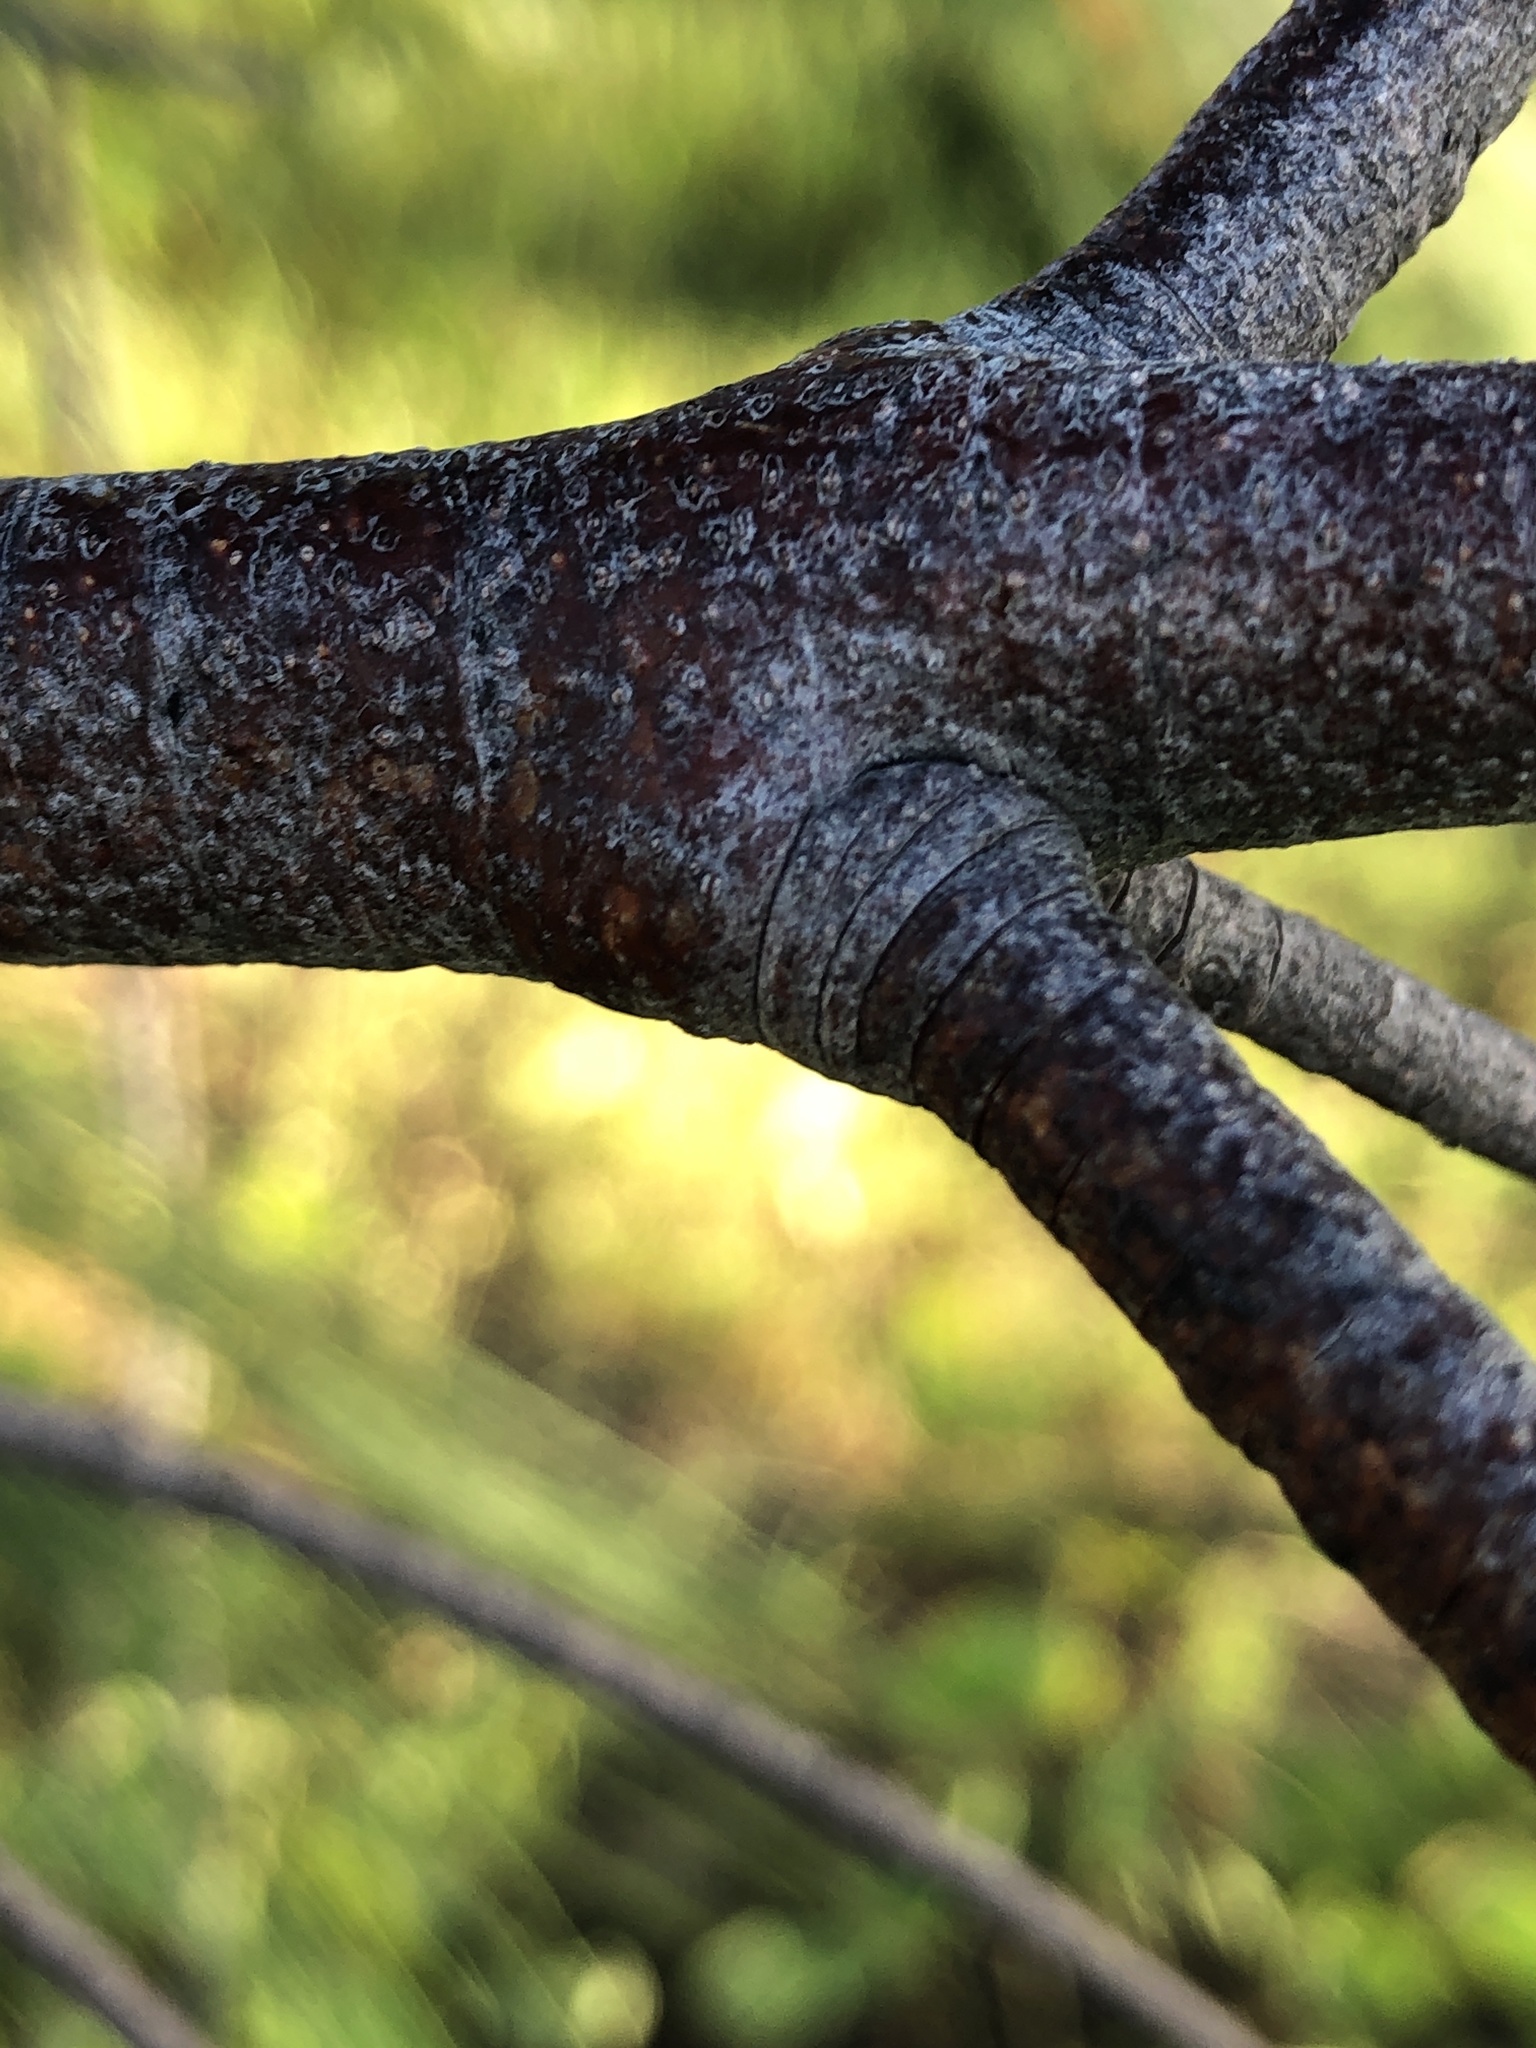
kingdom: Plantae
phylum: Tracheophyta
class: Magnoliopsida
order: Fagales
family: Casuarinaceae
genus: Casuarina
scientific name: Casuarina equisetifolia
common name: Beach sheoak
